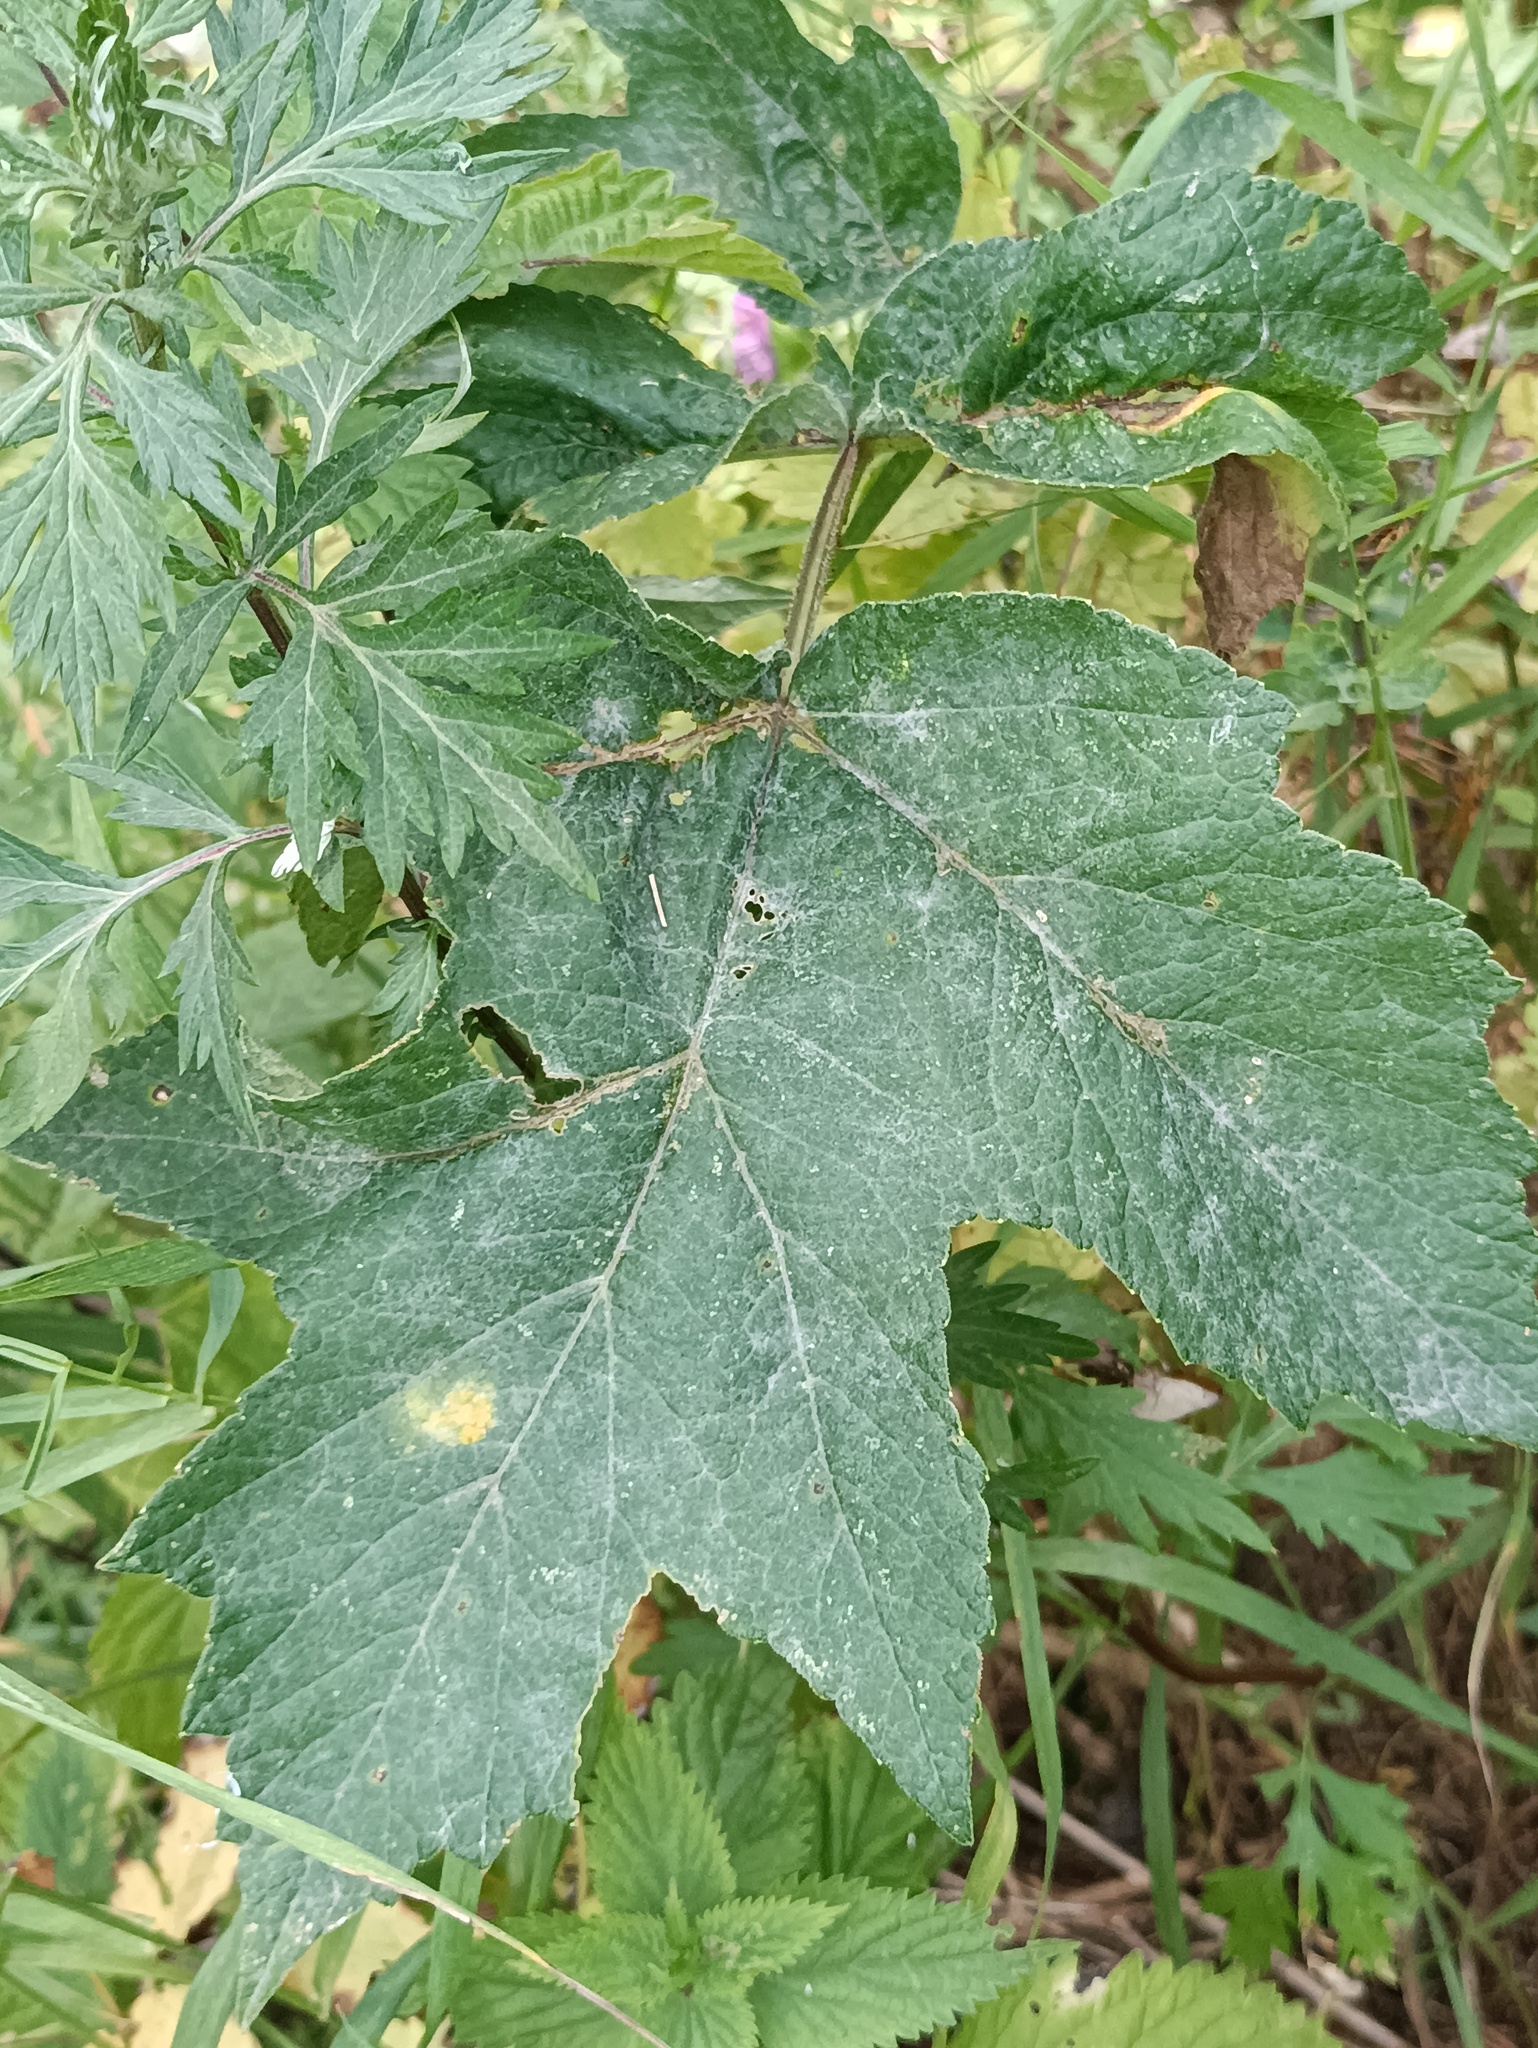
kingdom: Plantae
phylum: Tracheophyta
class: Magnoliopsida
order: Apiales
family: Apiaceae
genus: Heracleum
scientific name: Heracleum sphondylium
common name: Hogweed
